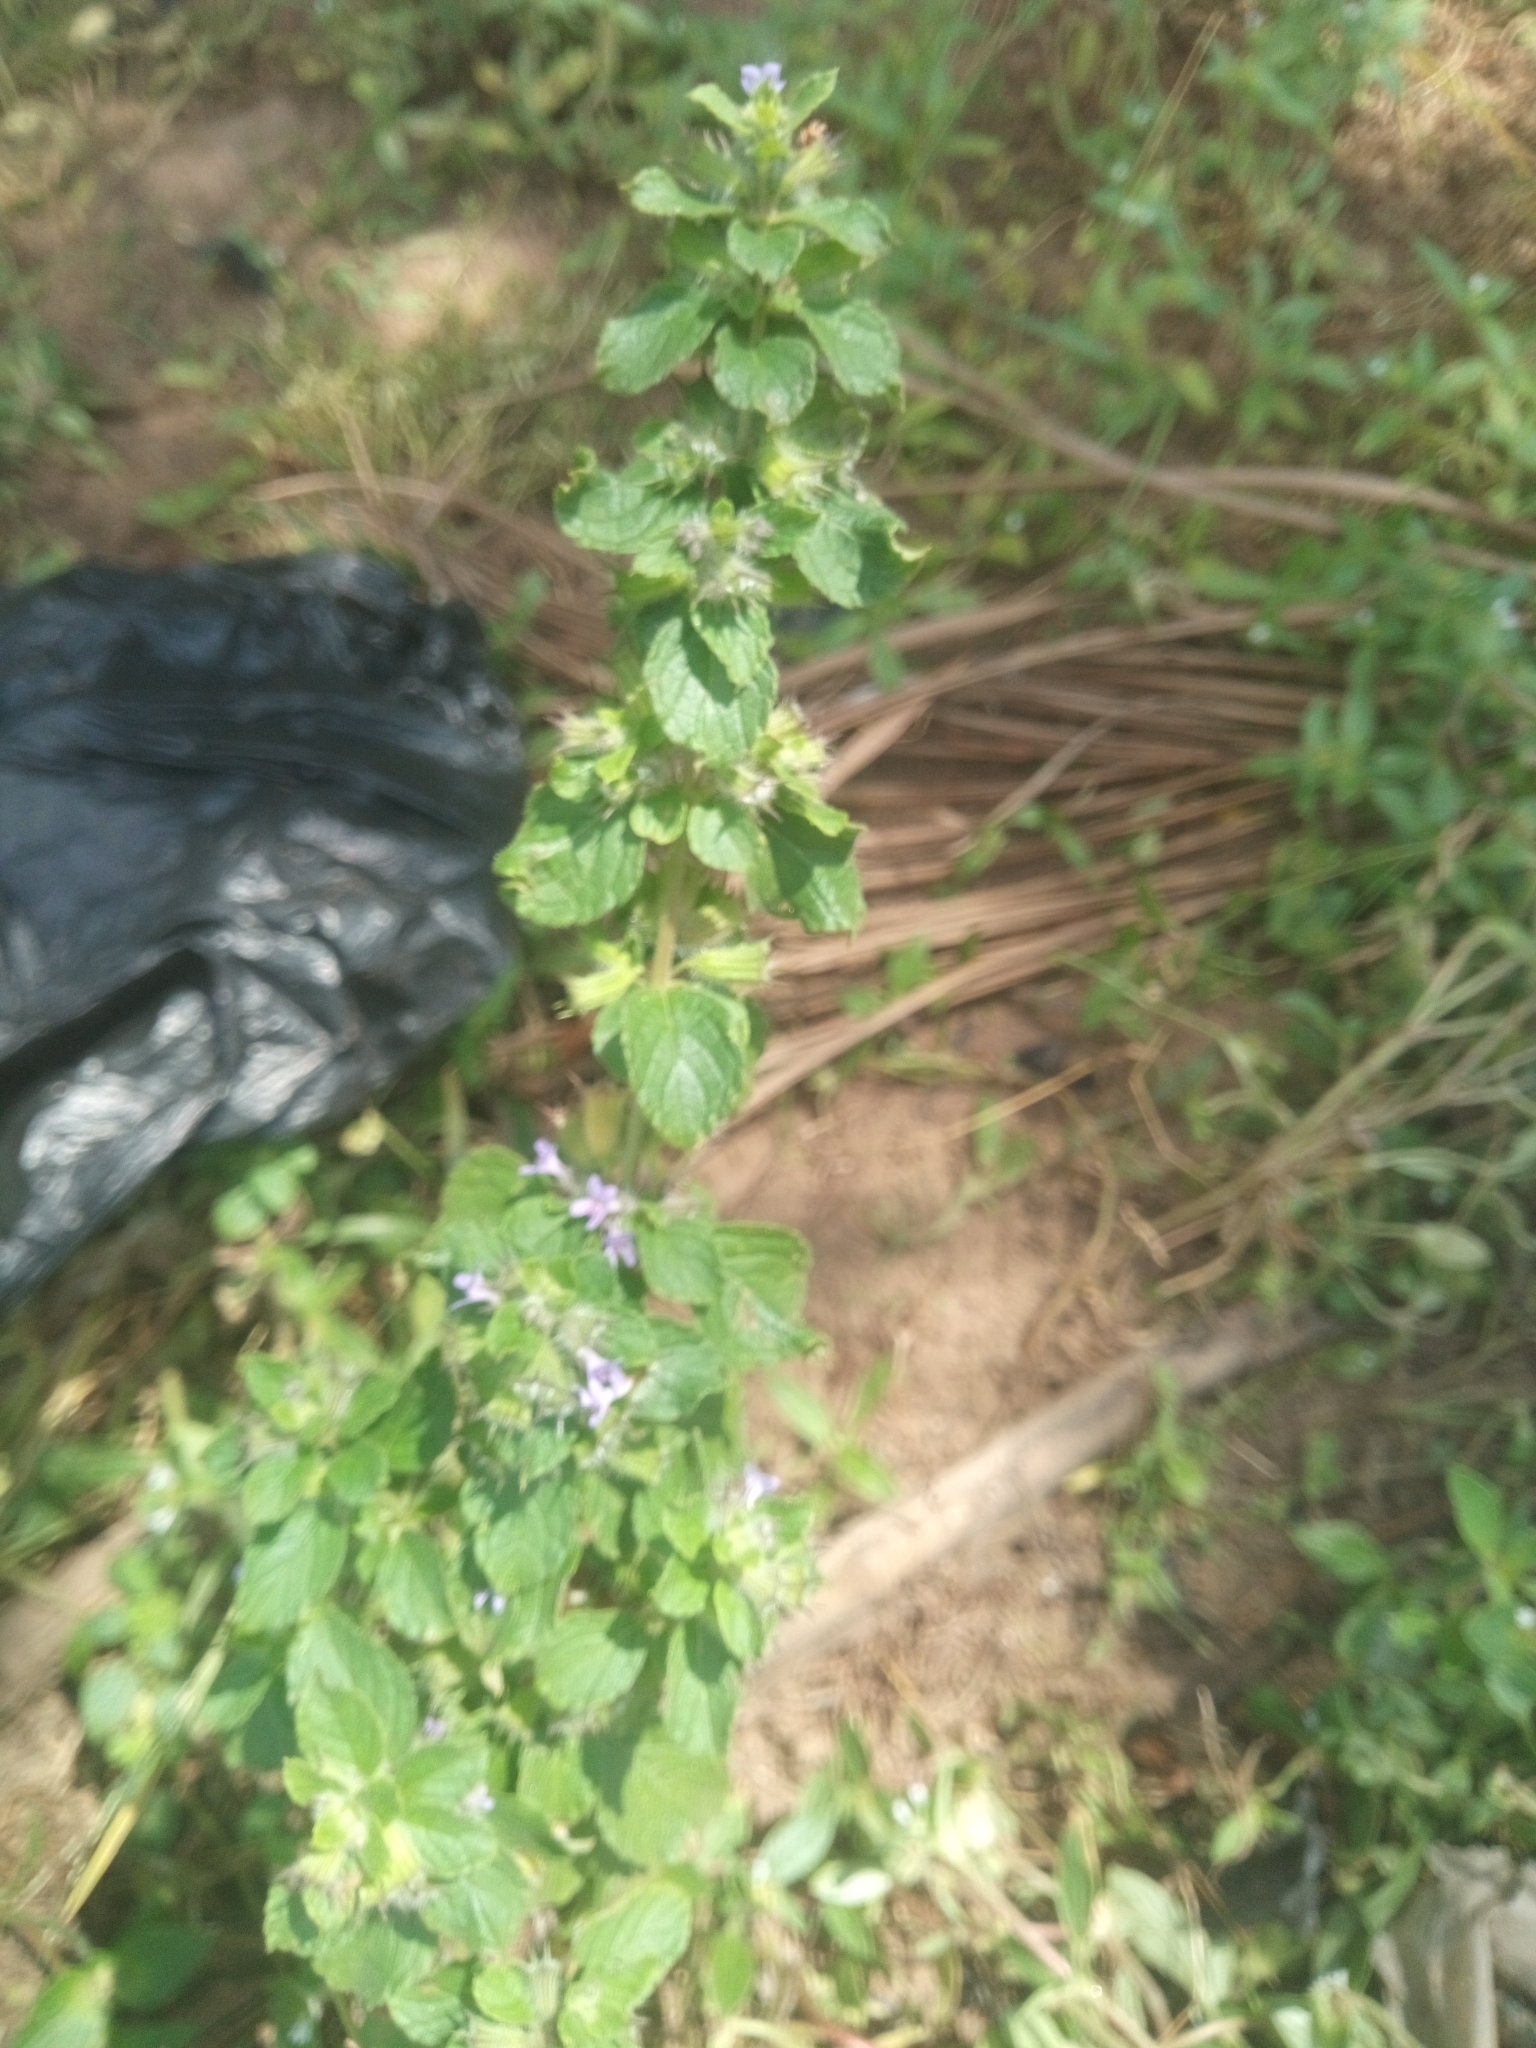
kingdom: Plantae
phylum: Tracheophyta
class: Magnoliopsida
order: Lamiales
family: Lamiaceae
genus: Mesosphaerum
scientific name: Mesosphaerum suaveolens
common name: Pignut
